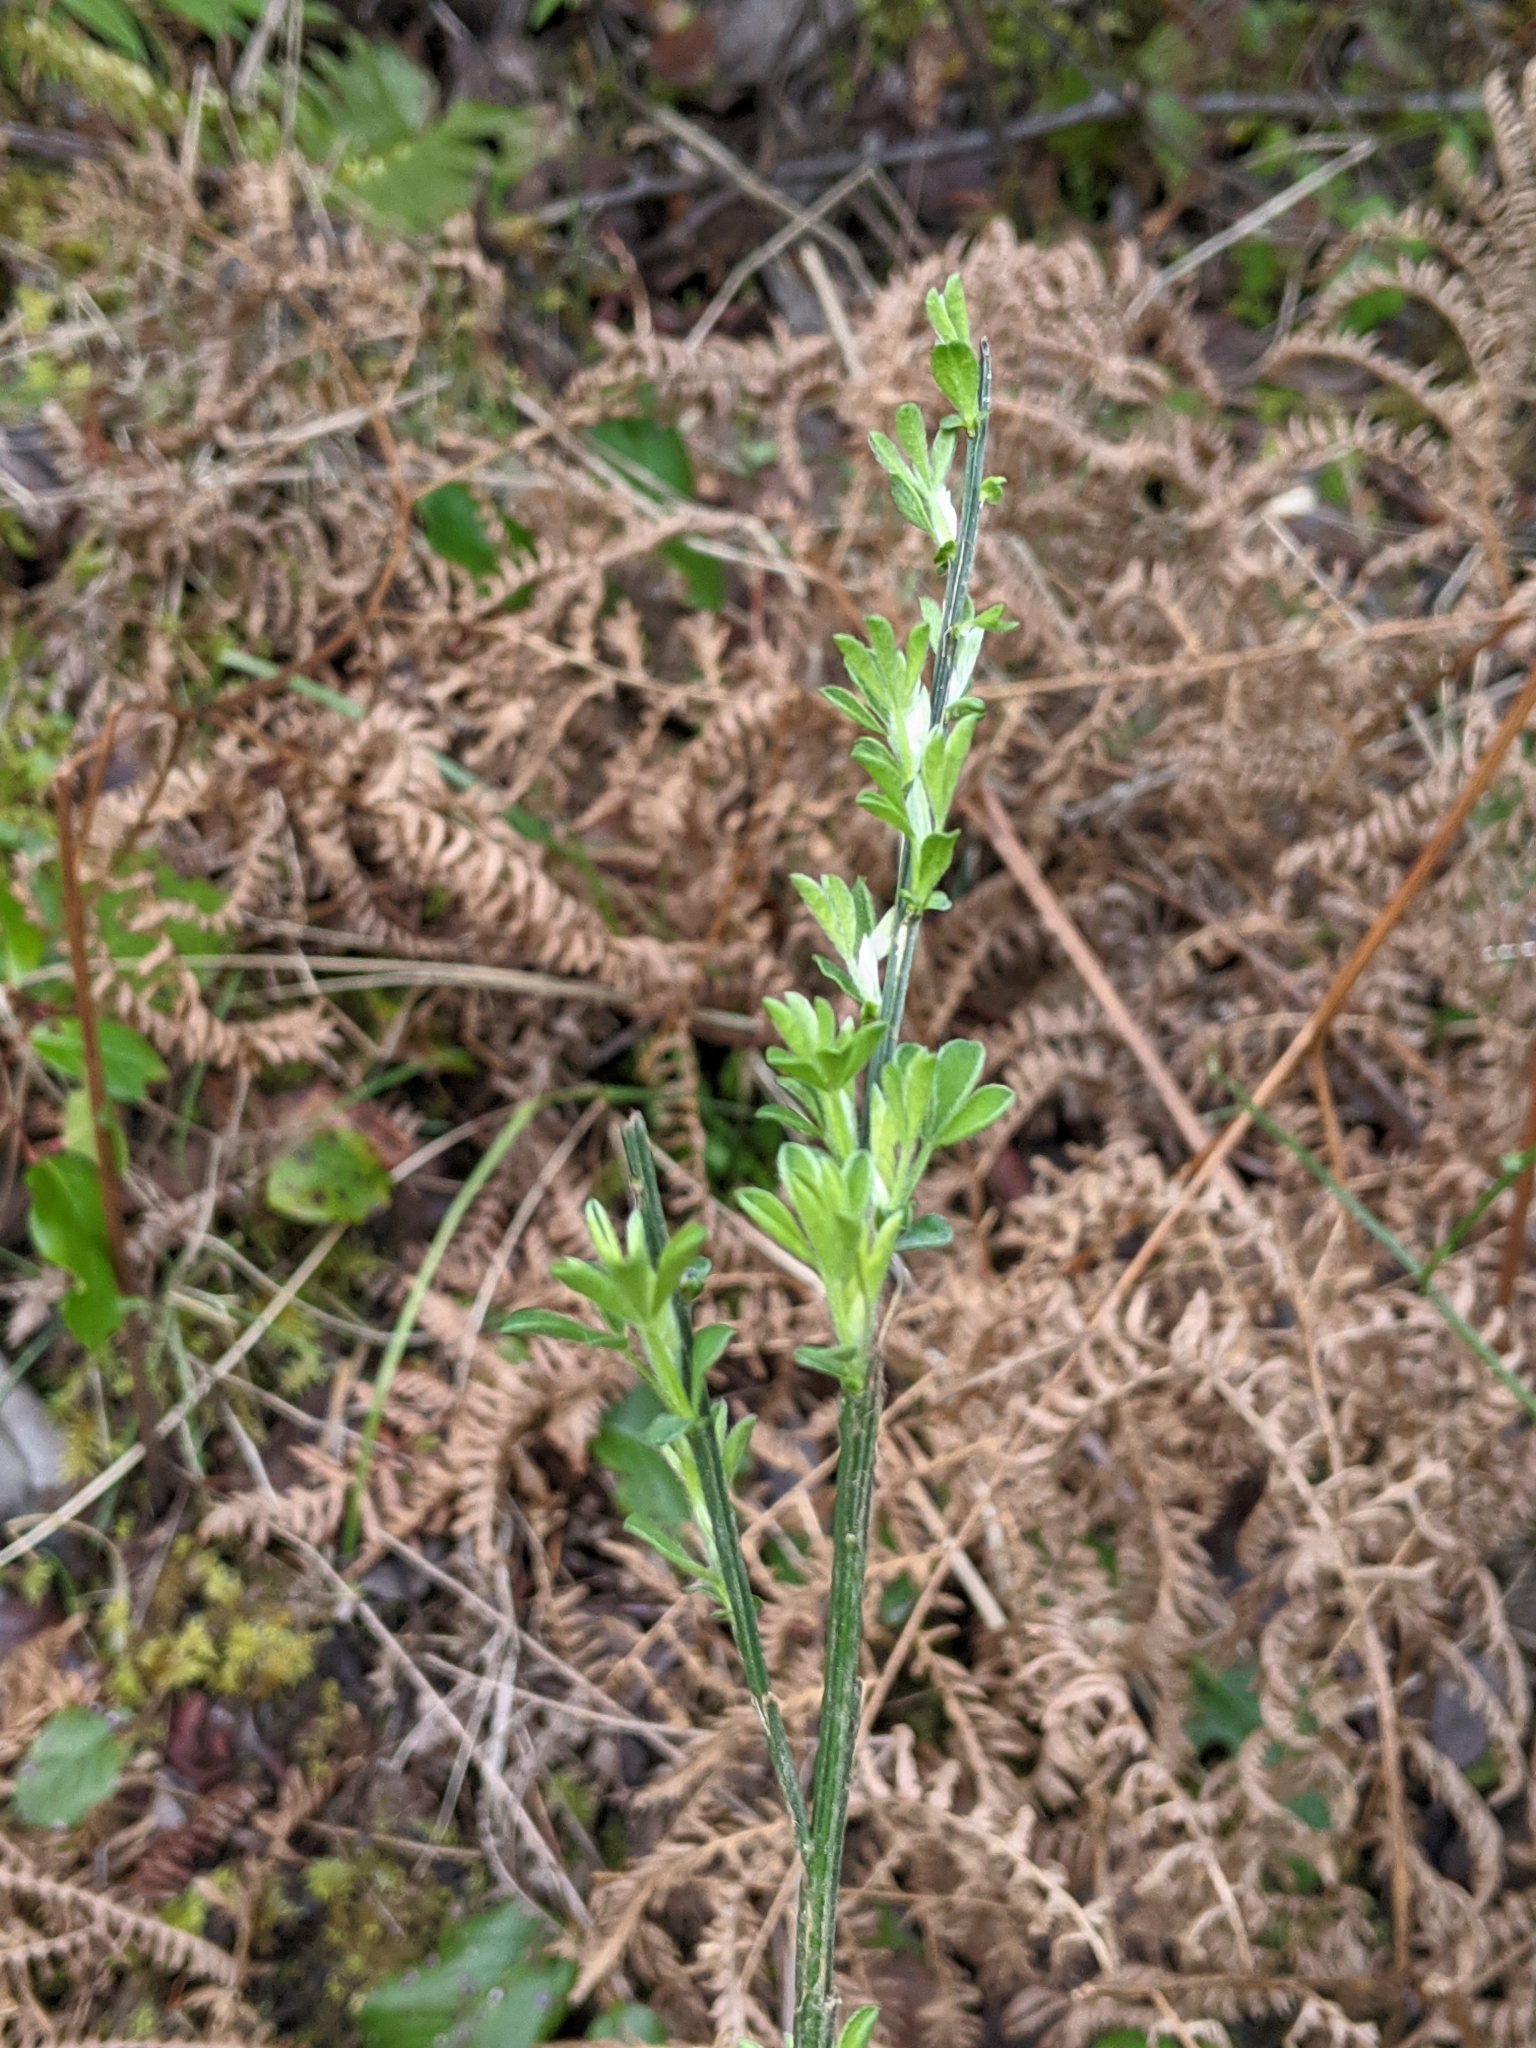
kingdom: Plantae
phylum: Tracheophyta
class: Magnoliopsida
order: Fabales
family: Fabaceae
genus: Cytisus
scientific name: Cytisus scoparius
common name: Scotch broom
